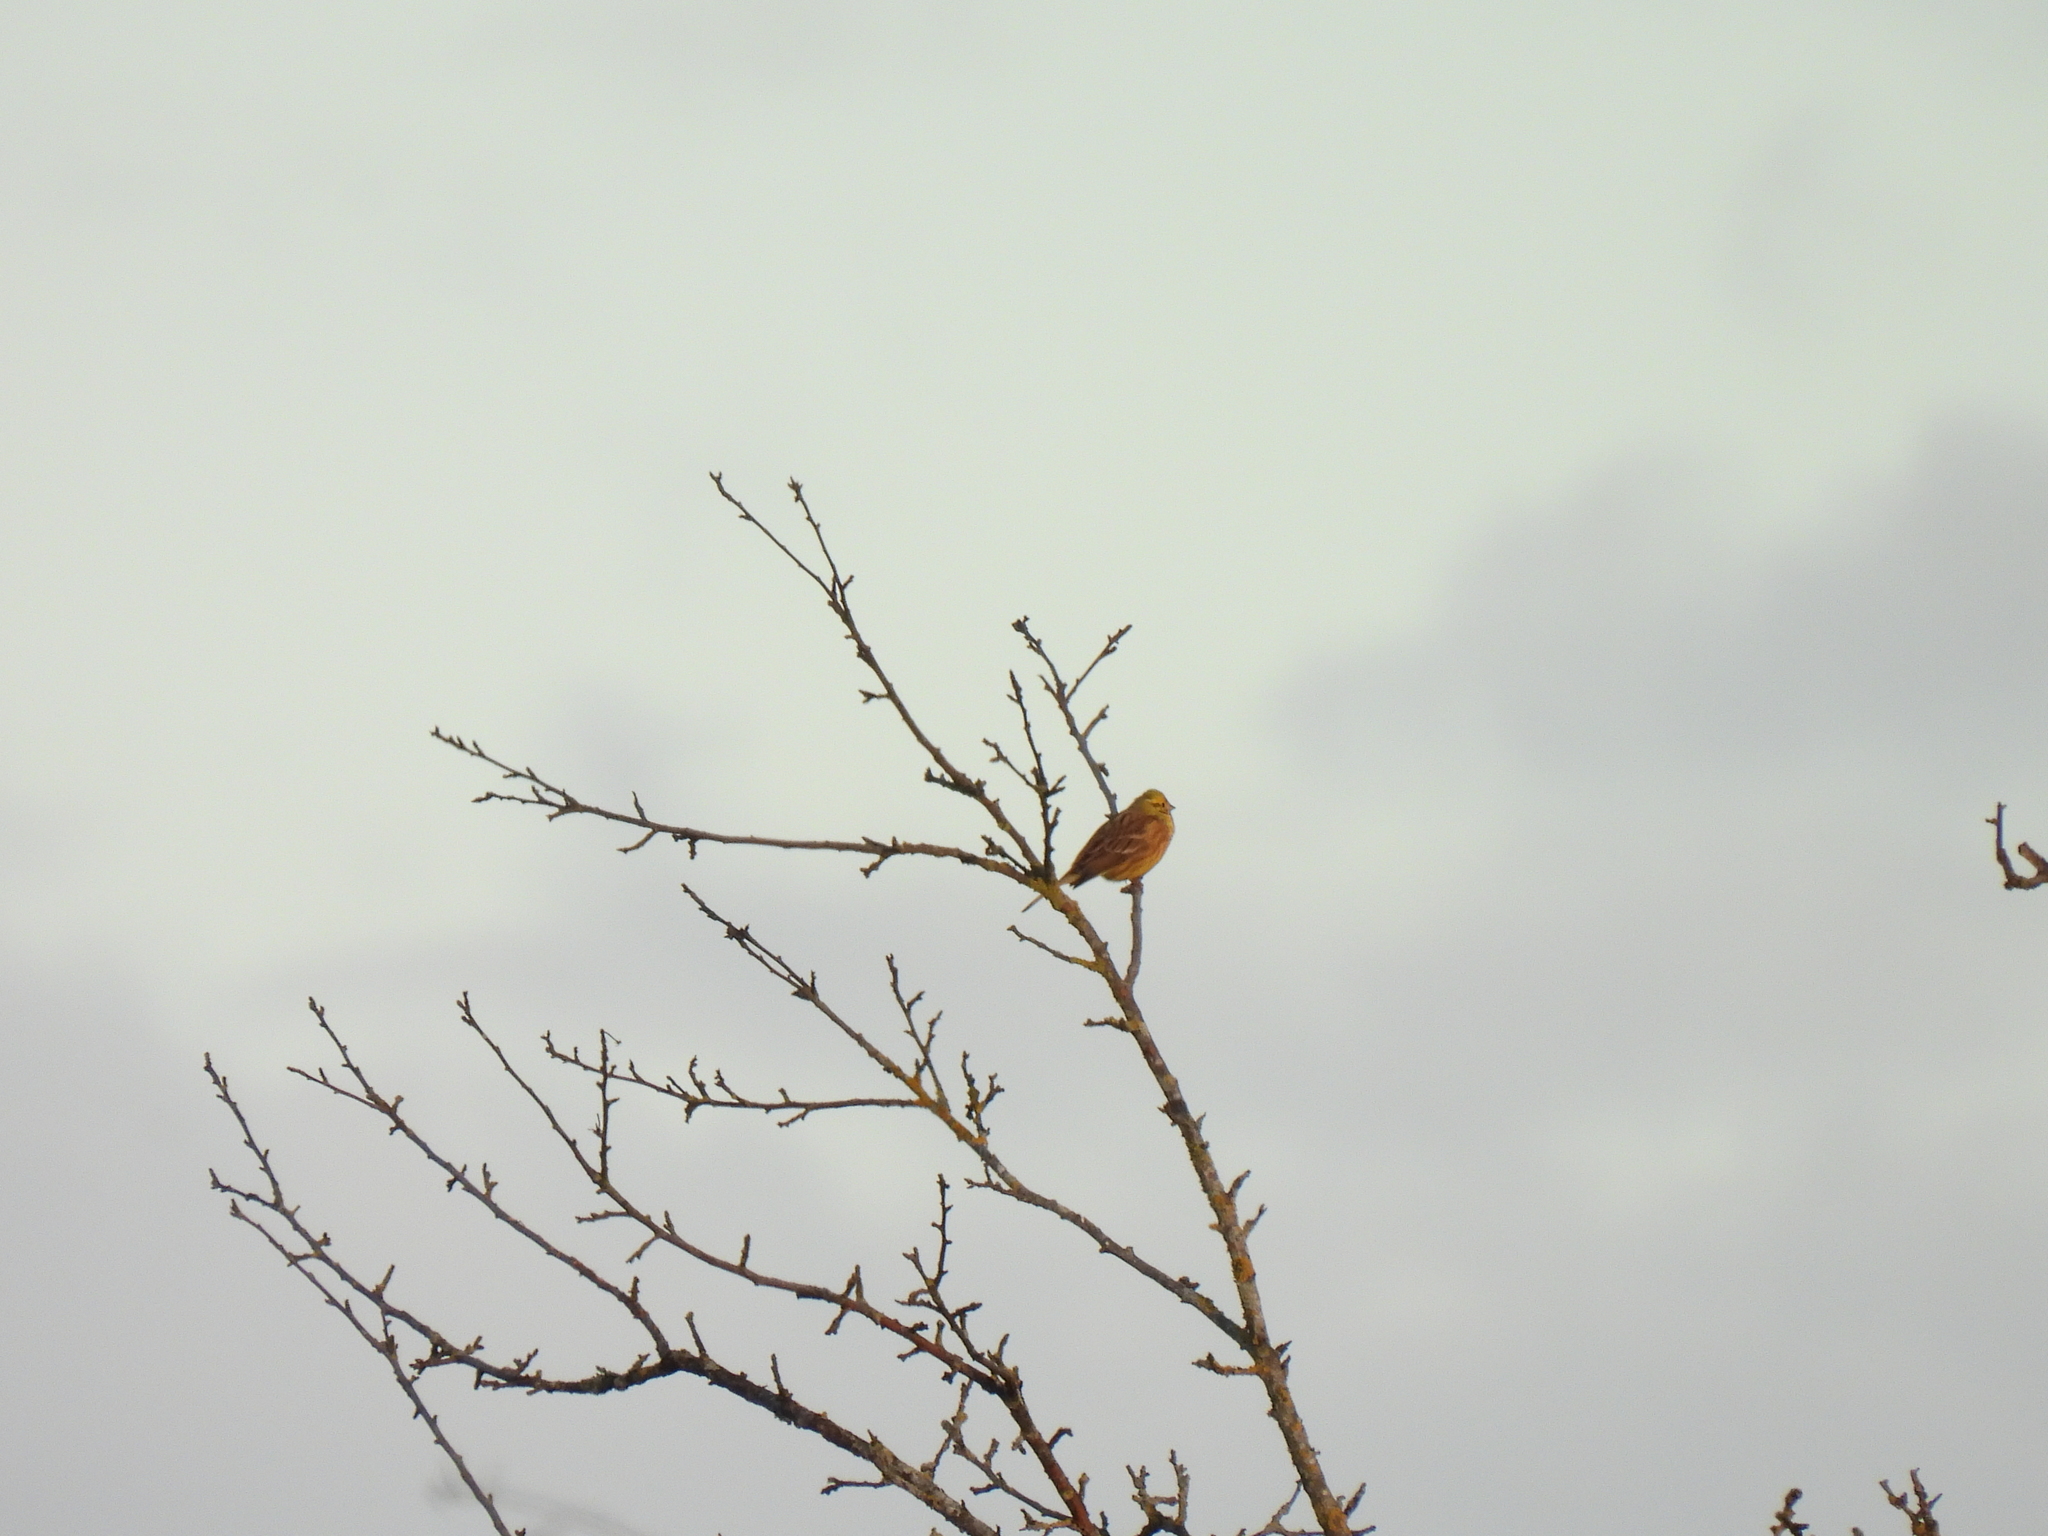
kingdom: Animalia
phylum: Chordata
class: Aves
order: Passeriformes
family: Emberizidae
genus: Emberiza
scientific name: Emberiza citrinella
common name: Yellowhammer
